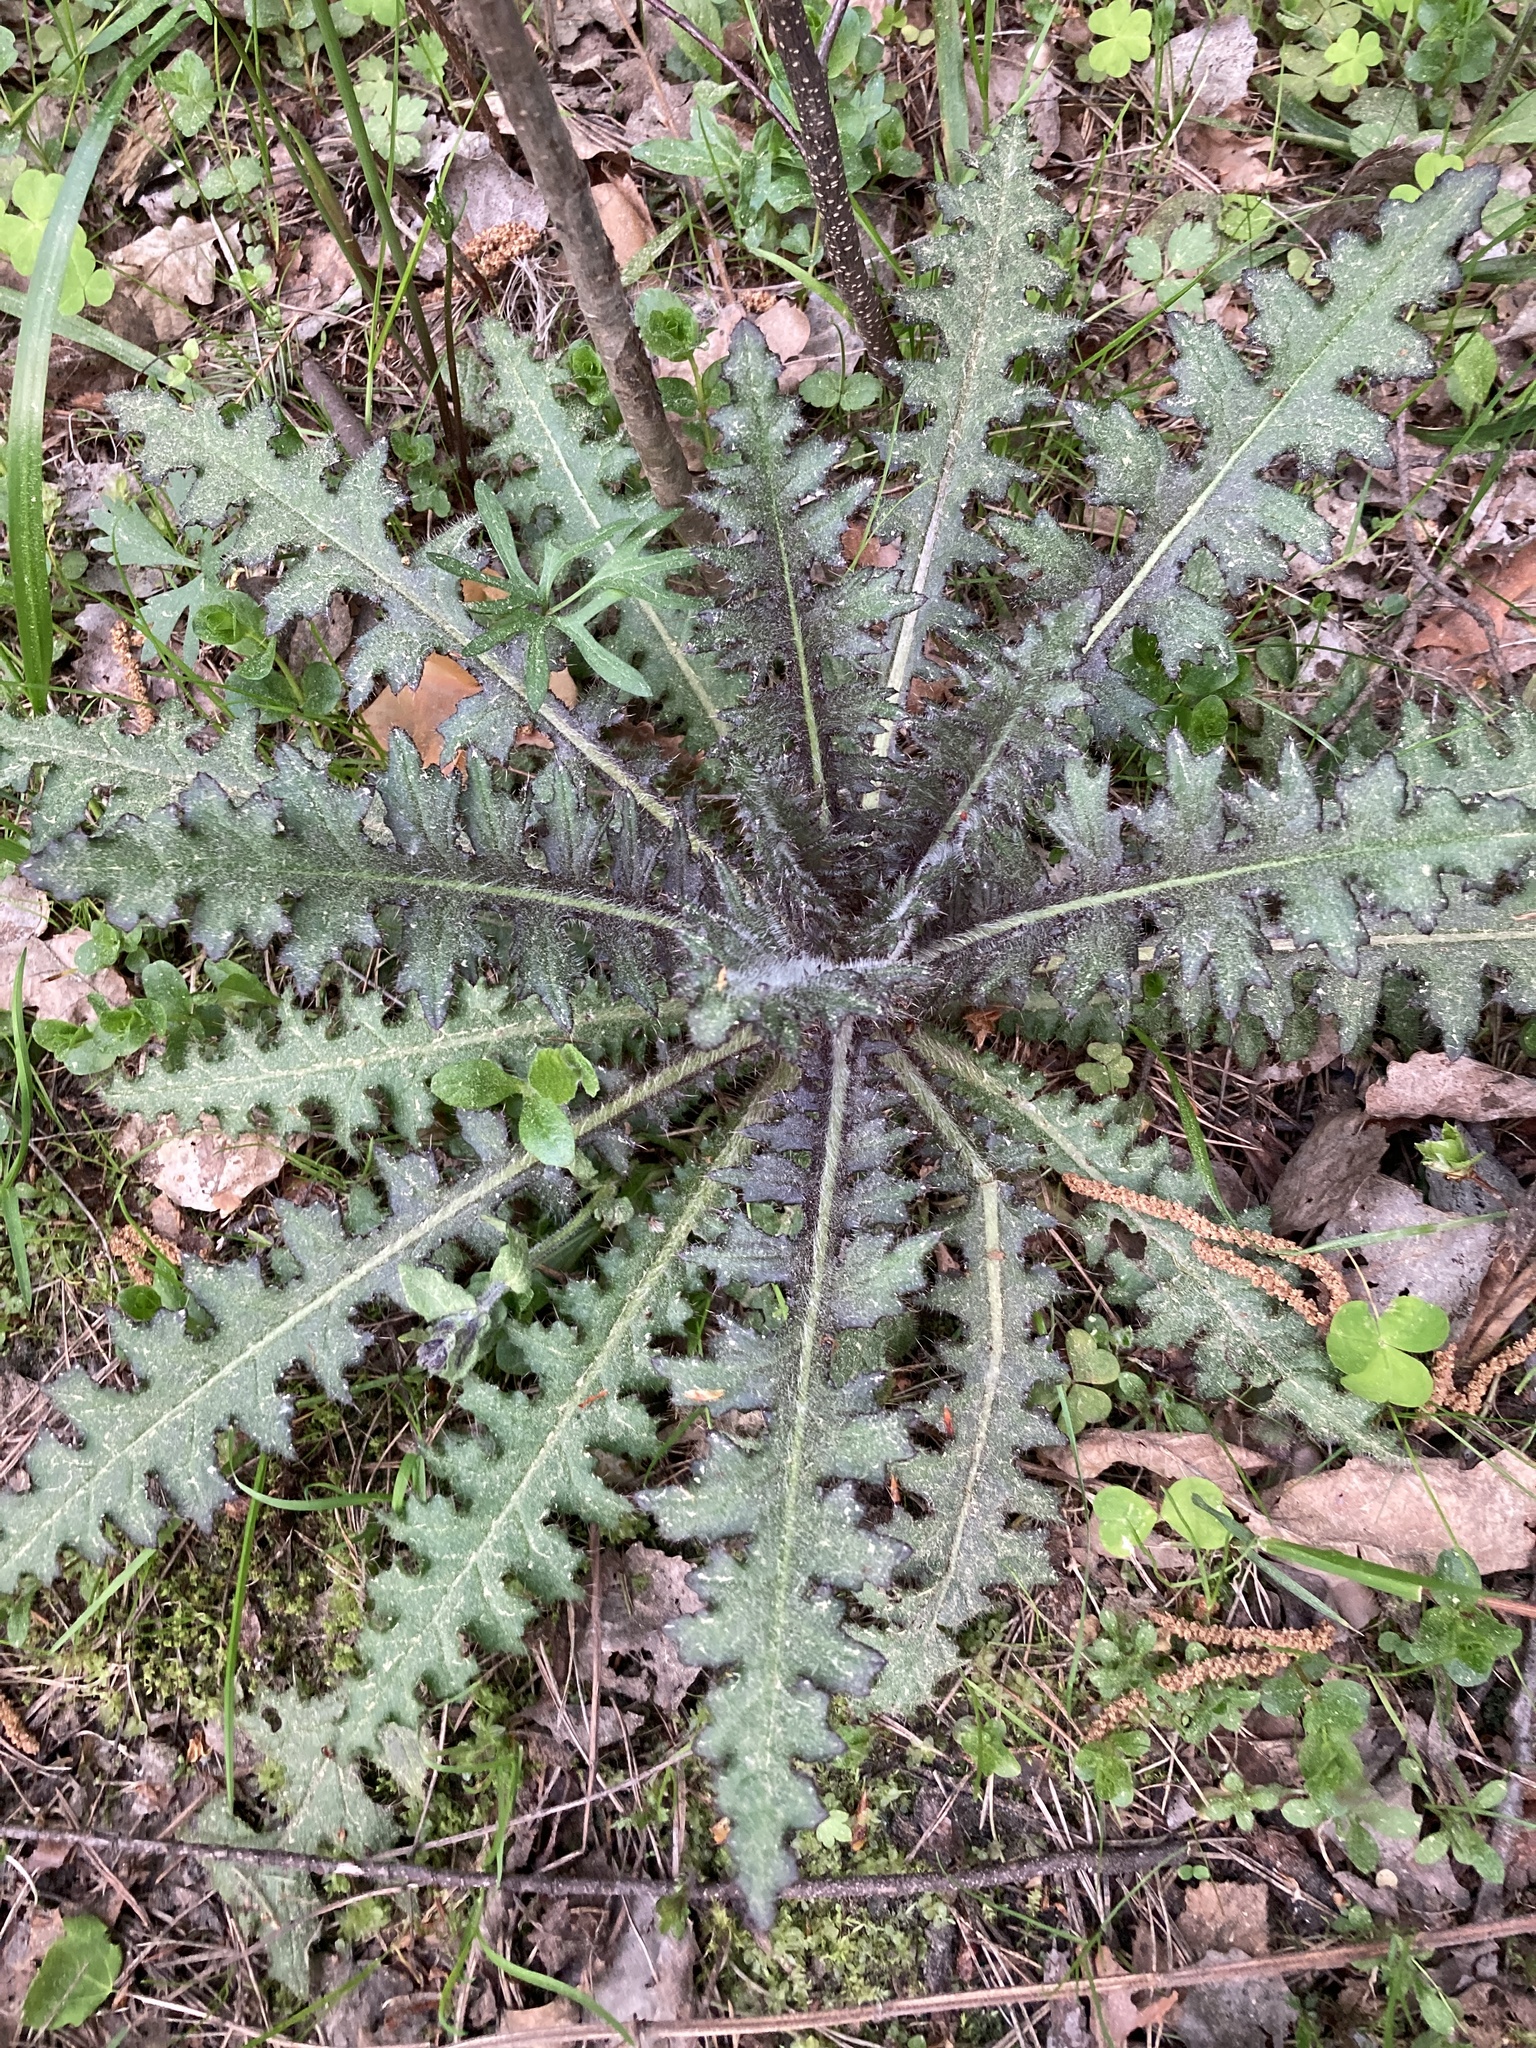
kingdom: Plantae
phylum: Tracheophyta
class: Magnoliopsida
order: Asterales
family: Asteraceae
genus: Cirsium
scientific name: Cirsium palustre
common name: Marsh thistle
